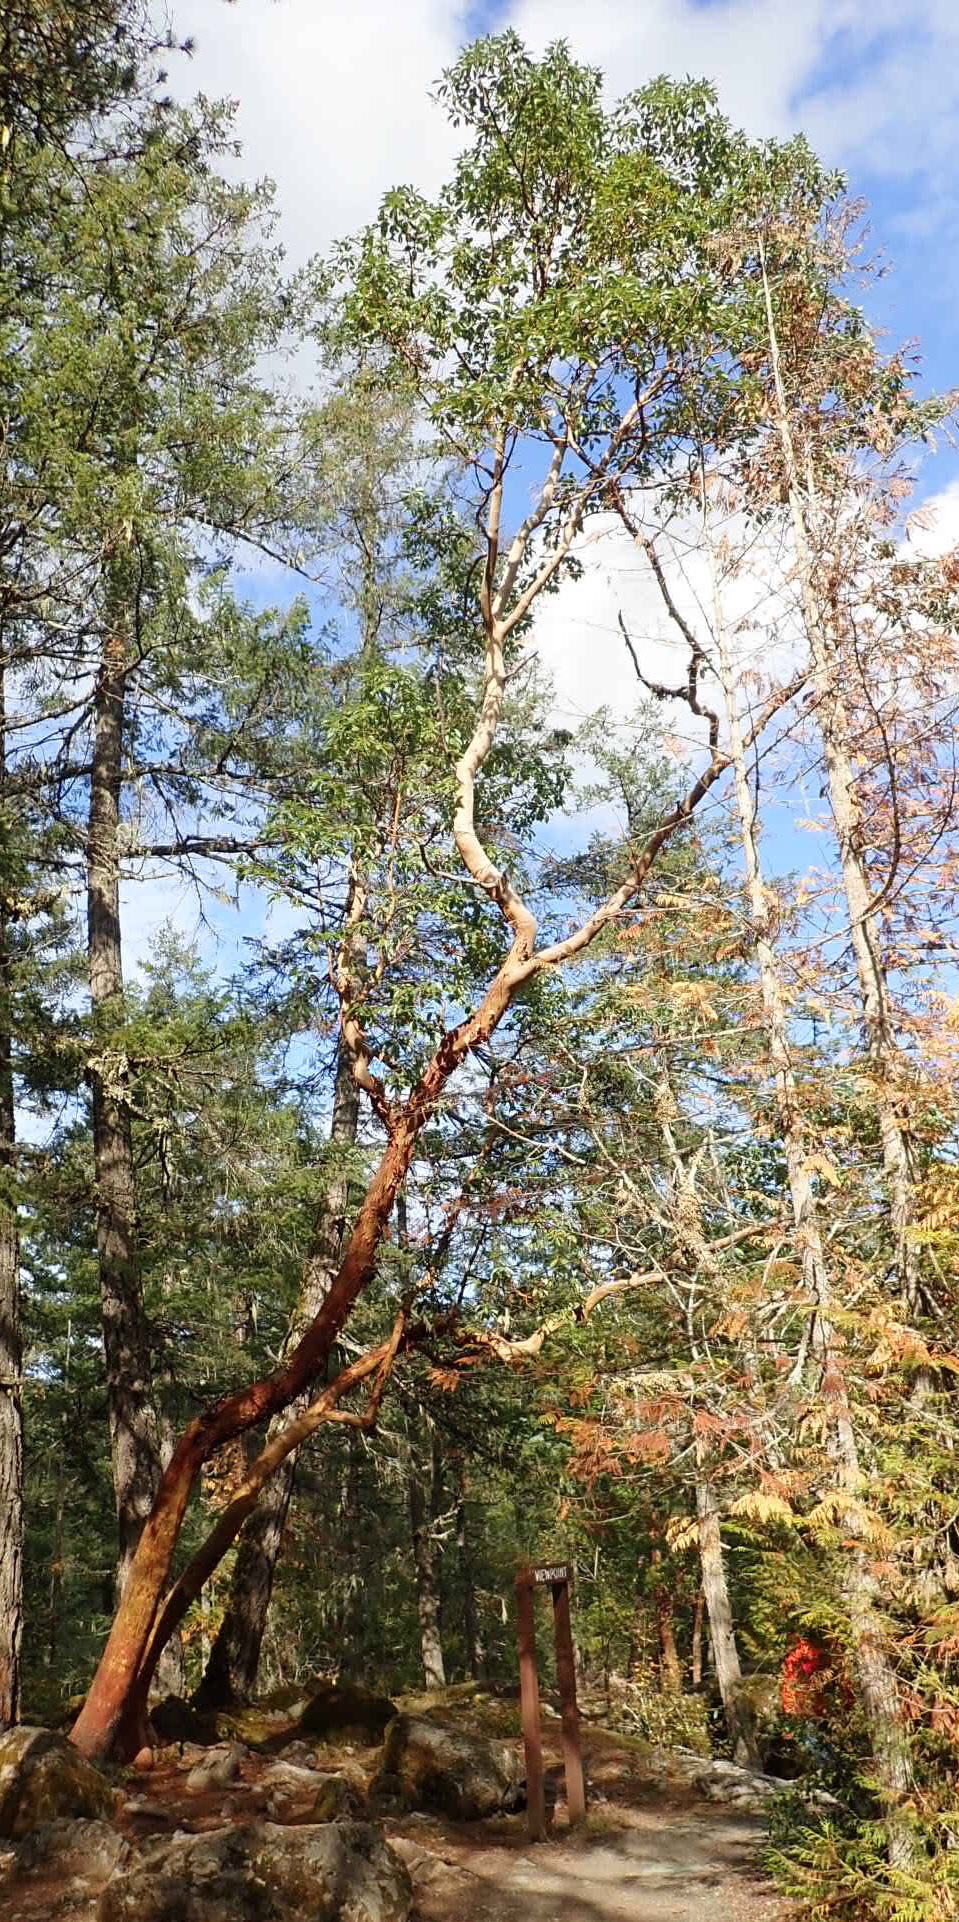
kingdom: Plantae
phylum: Tracheophyta
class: Magnoliopsida
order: Ericales
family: Ericaceae
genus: Arbutus
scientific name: Arbutus menziesii
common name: Pacific madrone
